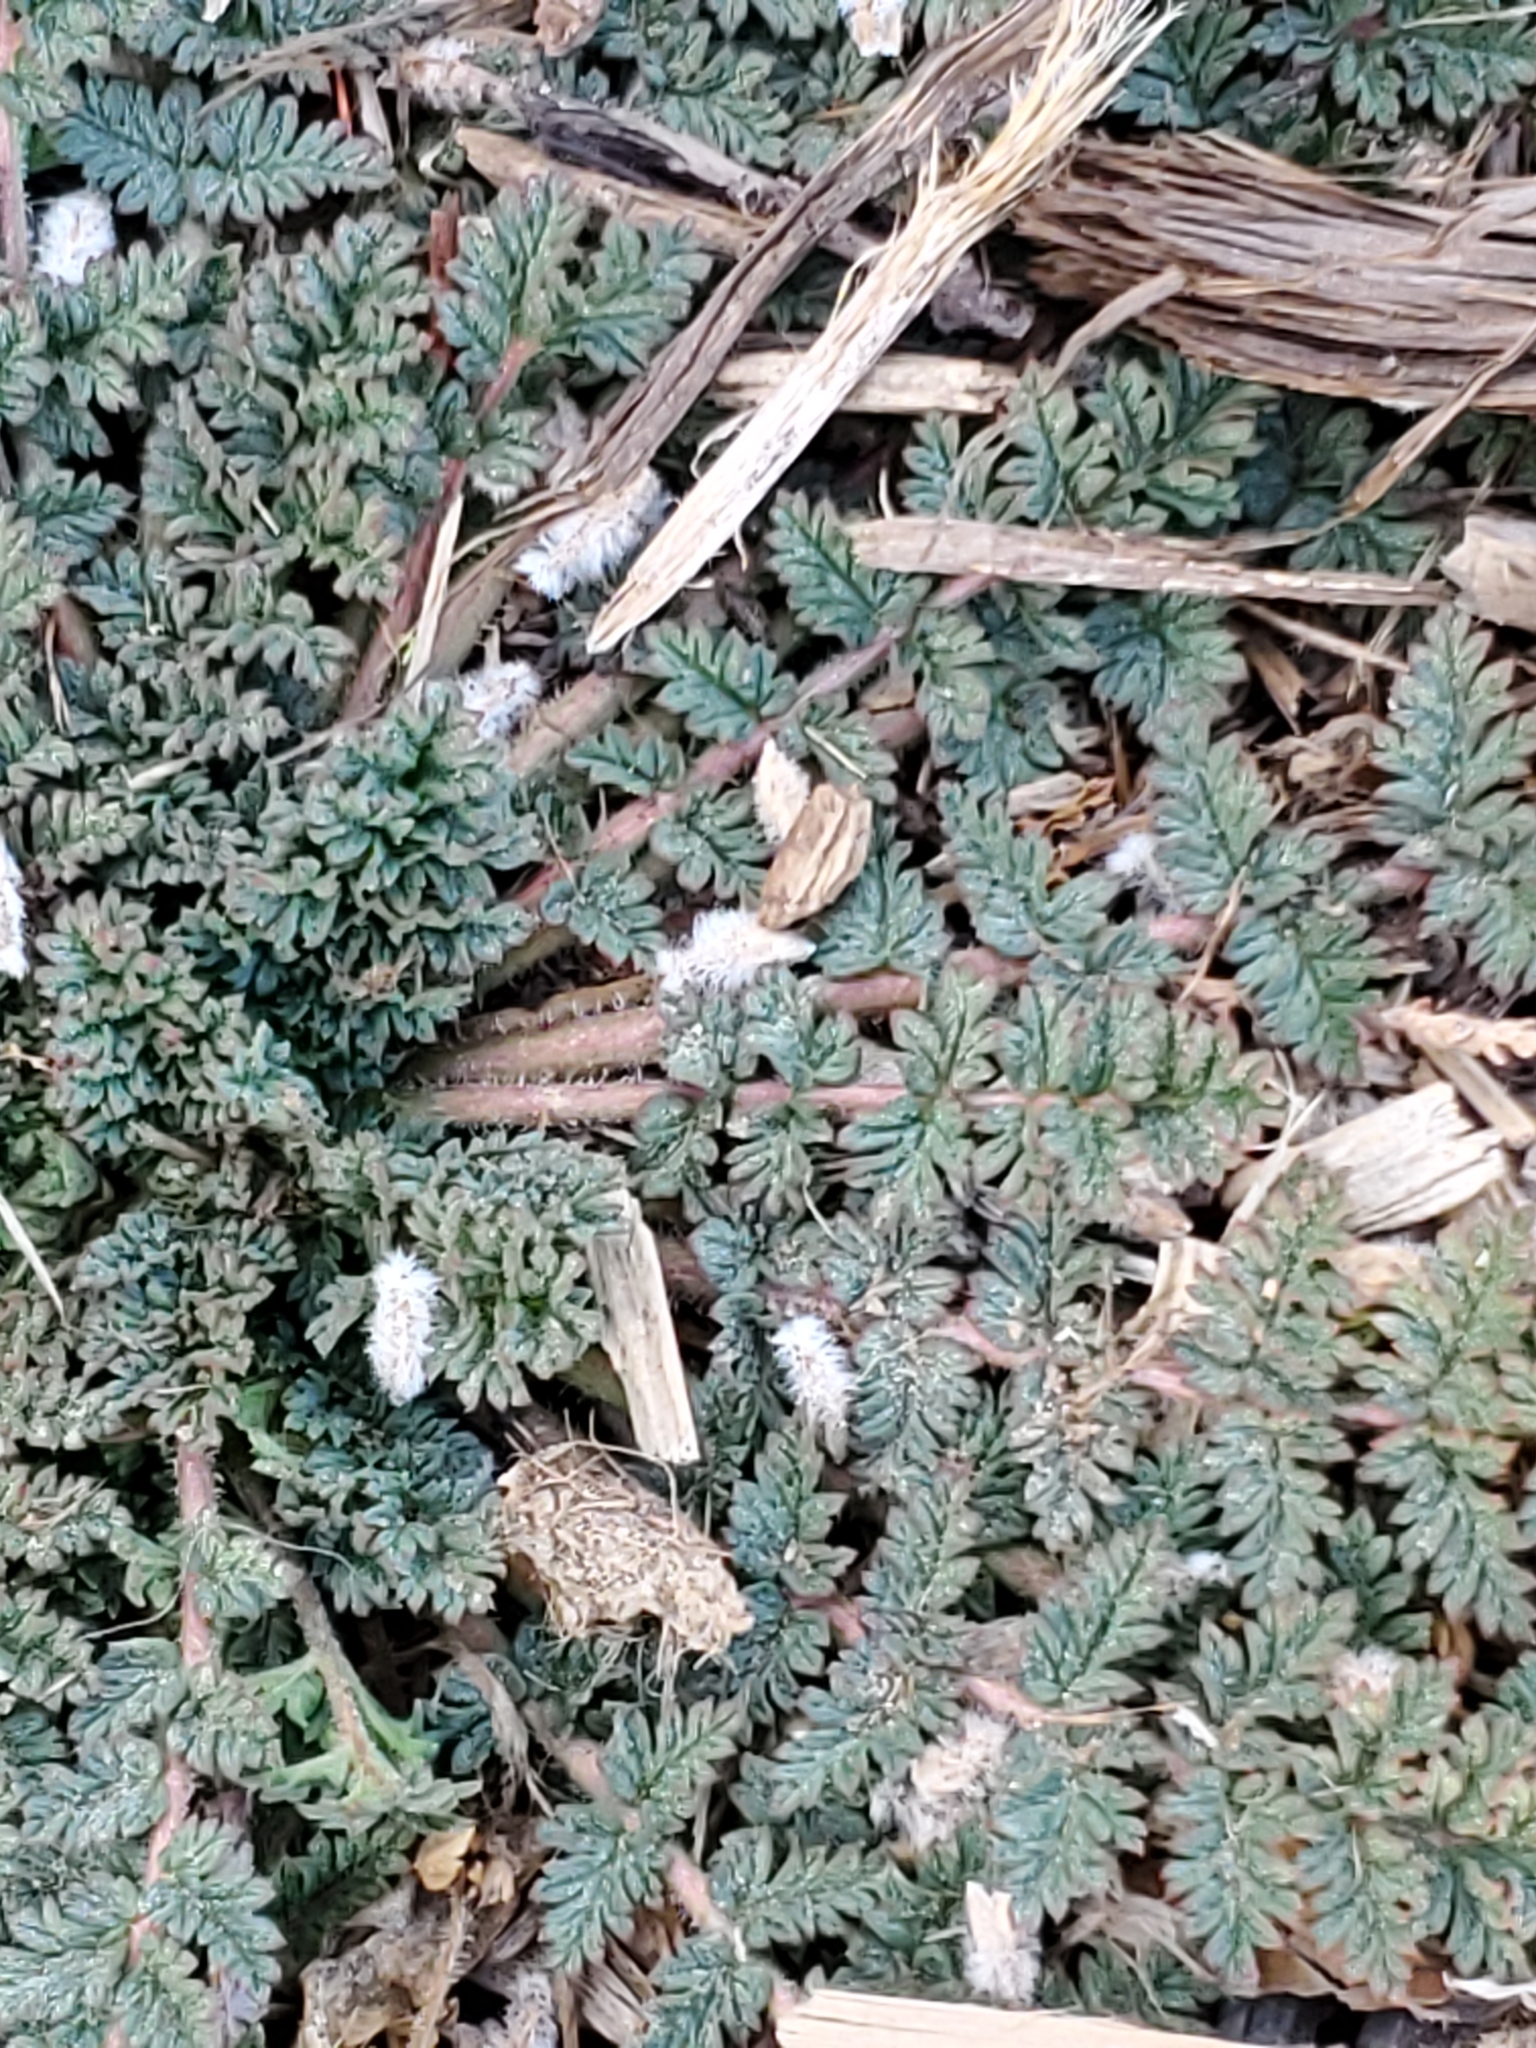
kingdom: Plantae
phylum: Tracheophyta
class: Magnoliopsida
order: Geraniales
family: Geraniaceae
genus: Erodium
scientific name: Erodium cicutarium
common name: Common stork's-bill
